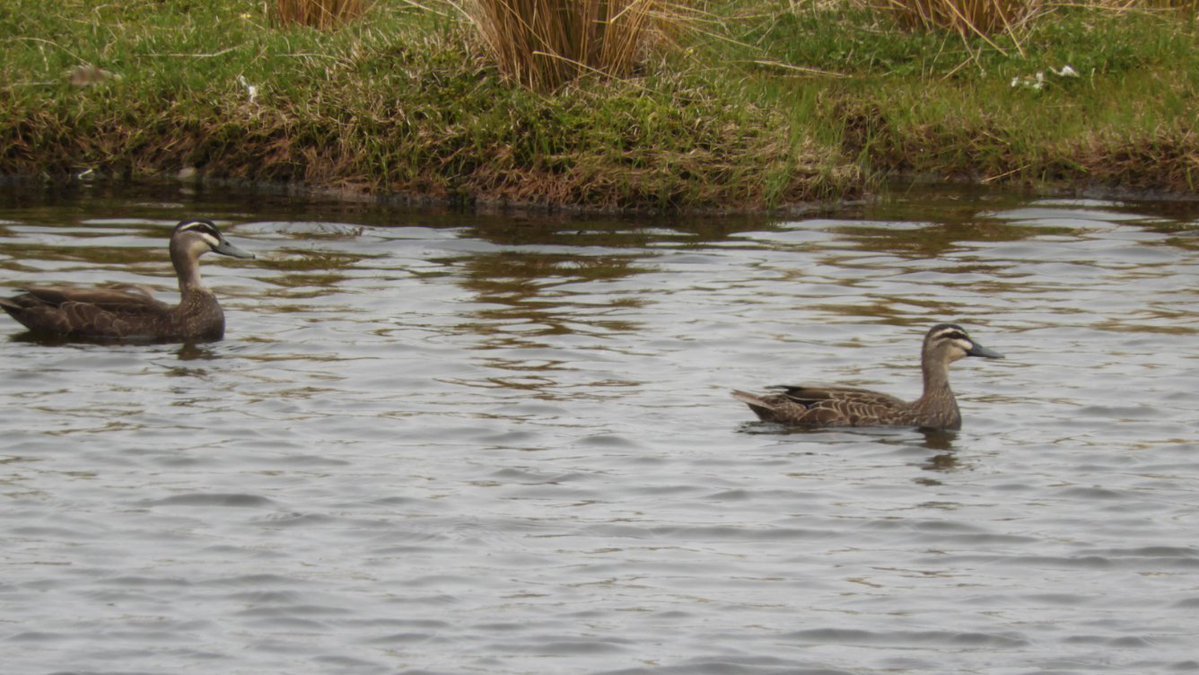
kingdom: Animalia
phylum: Chordata
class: Aves
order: Anseriformes
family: Anatidae
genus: Anas
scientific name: Anas superciliosa
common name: Pacific black duck
